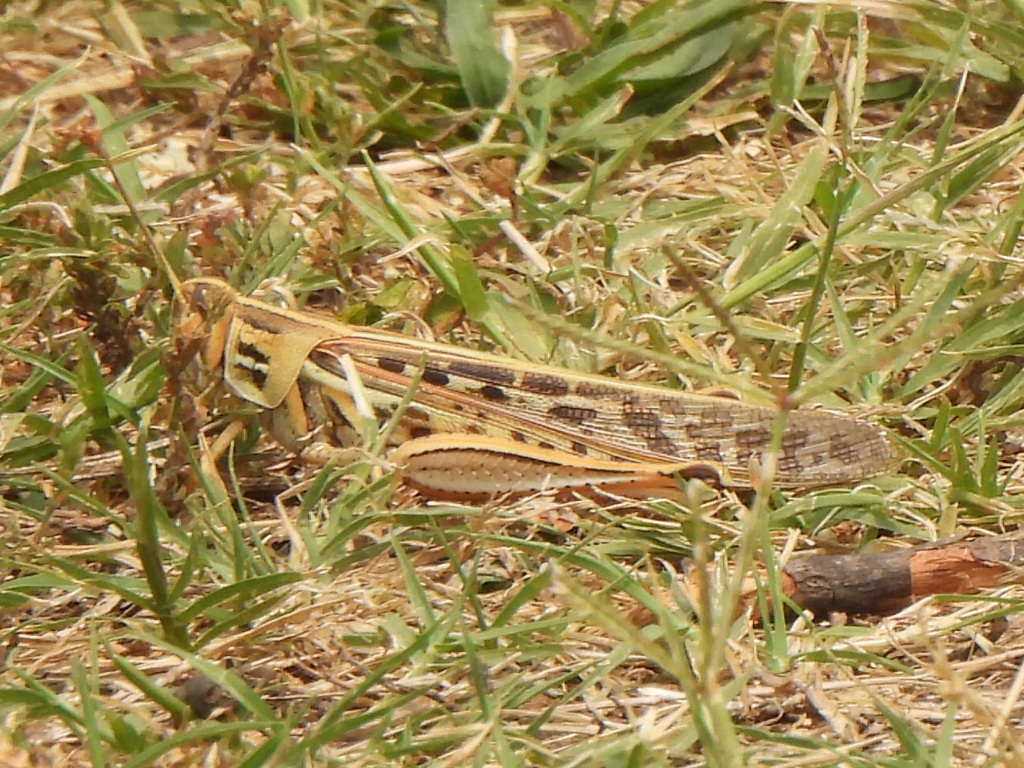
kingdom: Animalia
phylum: Arthropoda
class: Insecta
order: Orthoptera
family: Acrididae
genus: Schistocerca
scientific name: Schistocerca americana
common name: American bird locust
